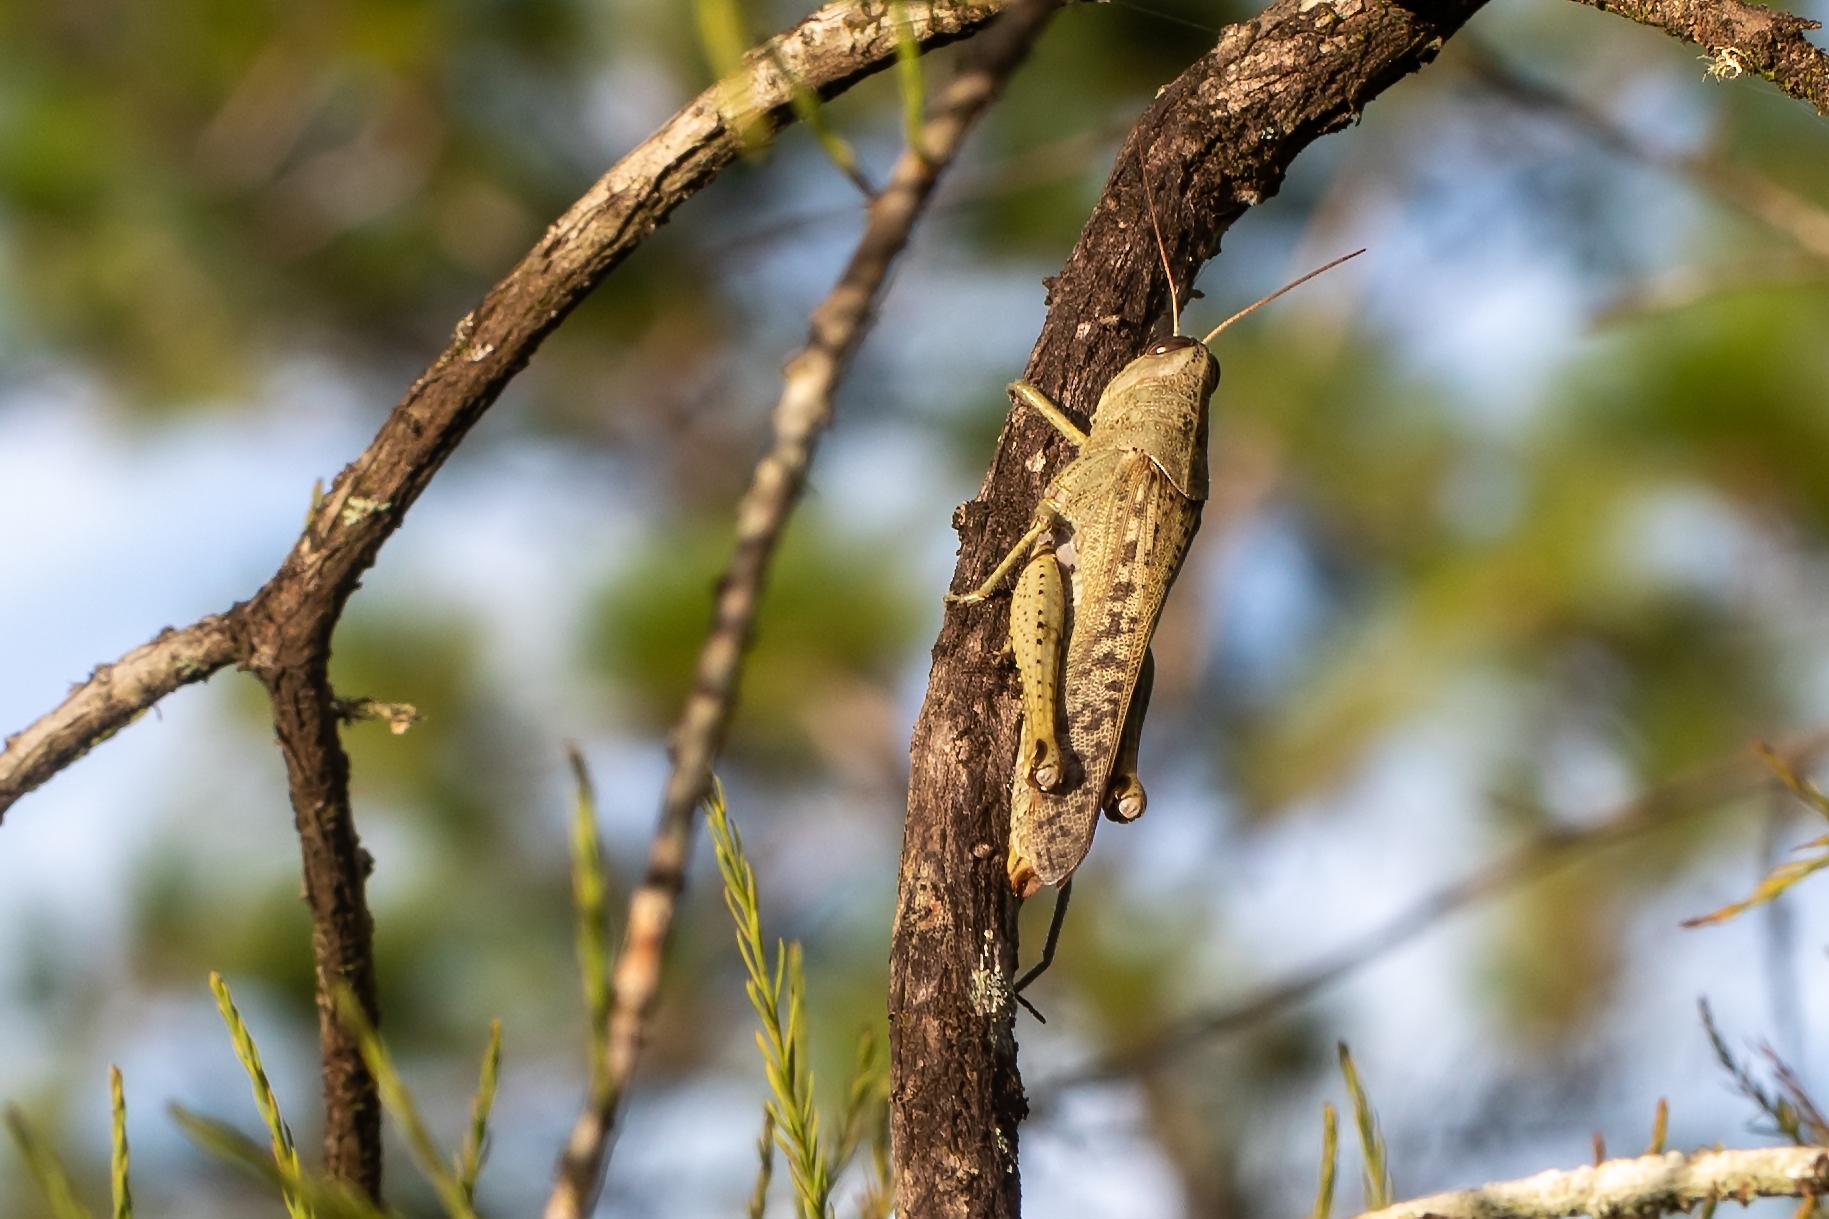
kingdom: Animalia
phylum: Arthropoda
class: Insecta
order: Orthoptera
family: Acrididae
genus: Schistocerca
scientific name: Schistocerca rubiginosa
